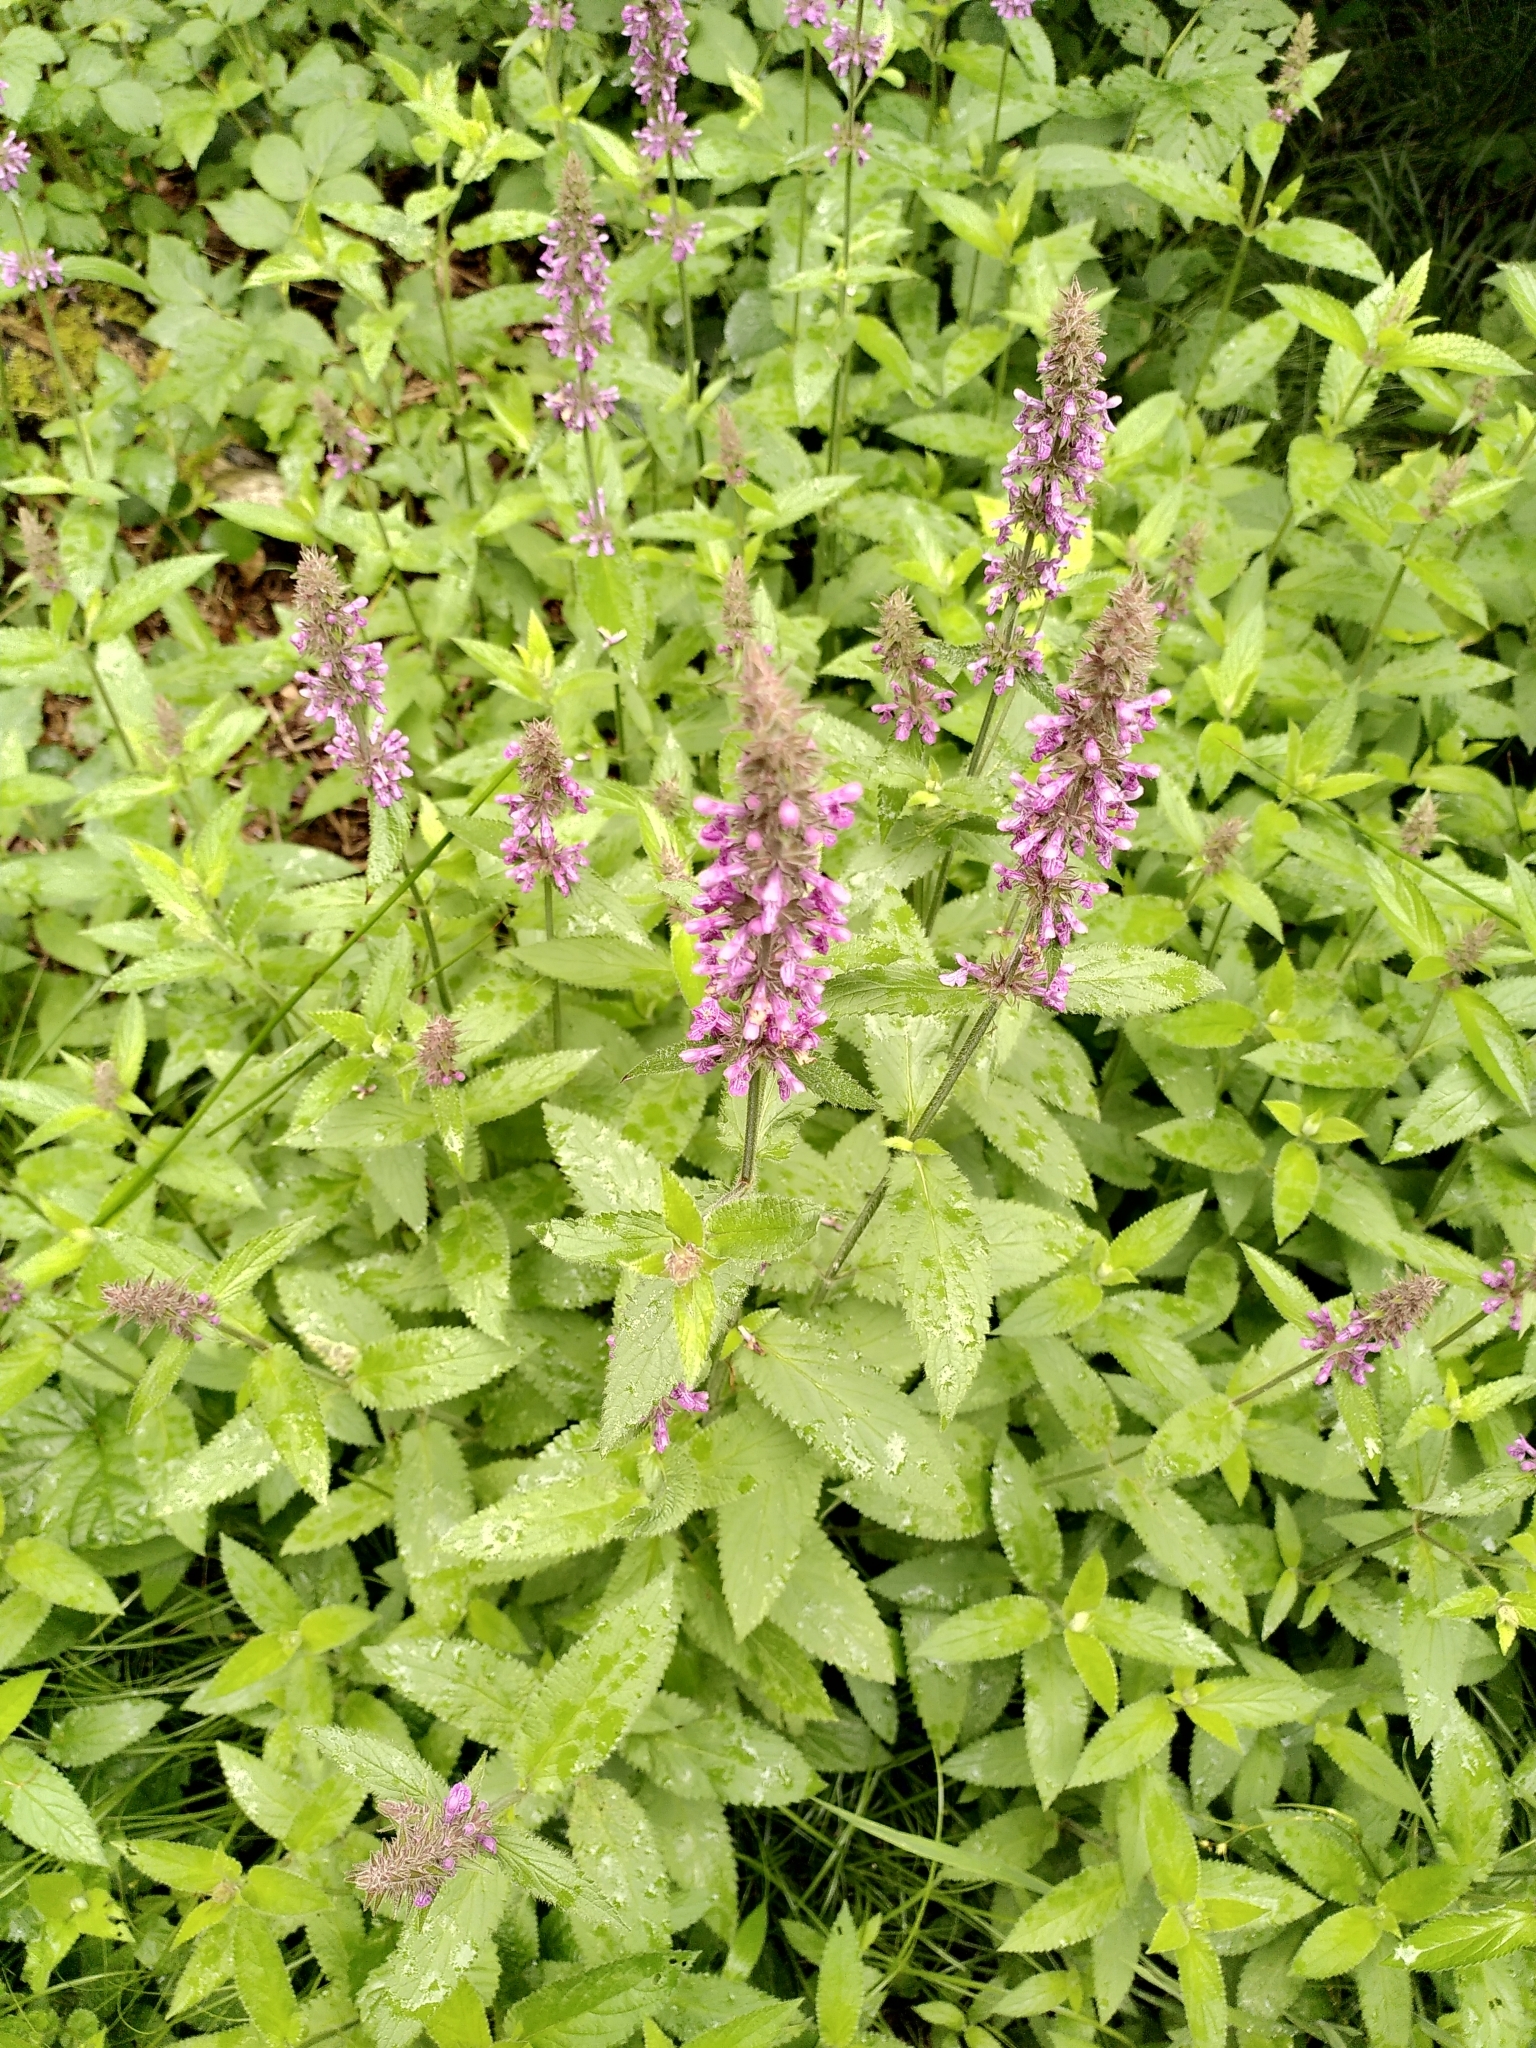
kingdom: Plantae
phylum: Tracheophyta
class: Magnoliopsida
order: Lamiales
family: Lamiaceae
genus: Stachys
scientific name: Stachys palustris
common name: Marsh woundwort
